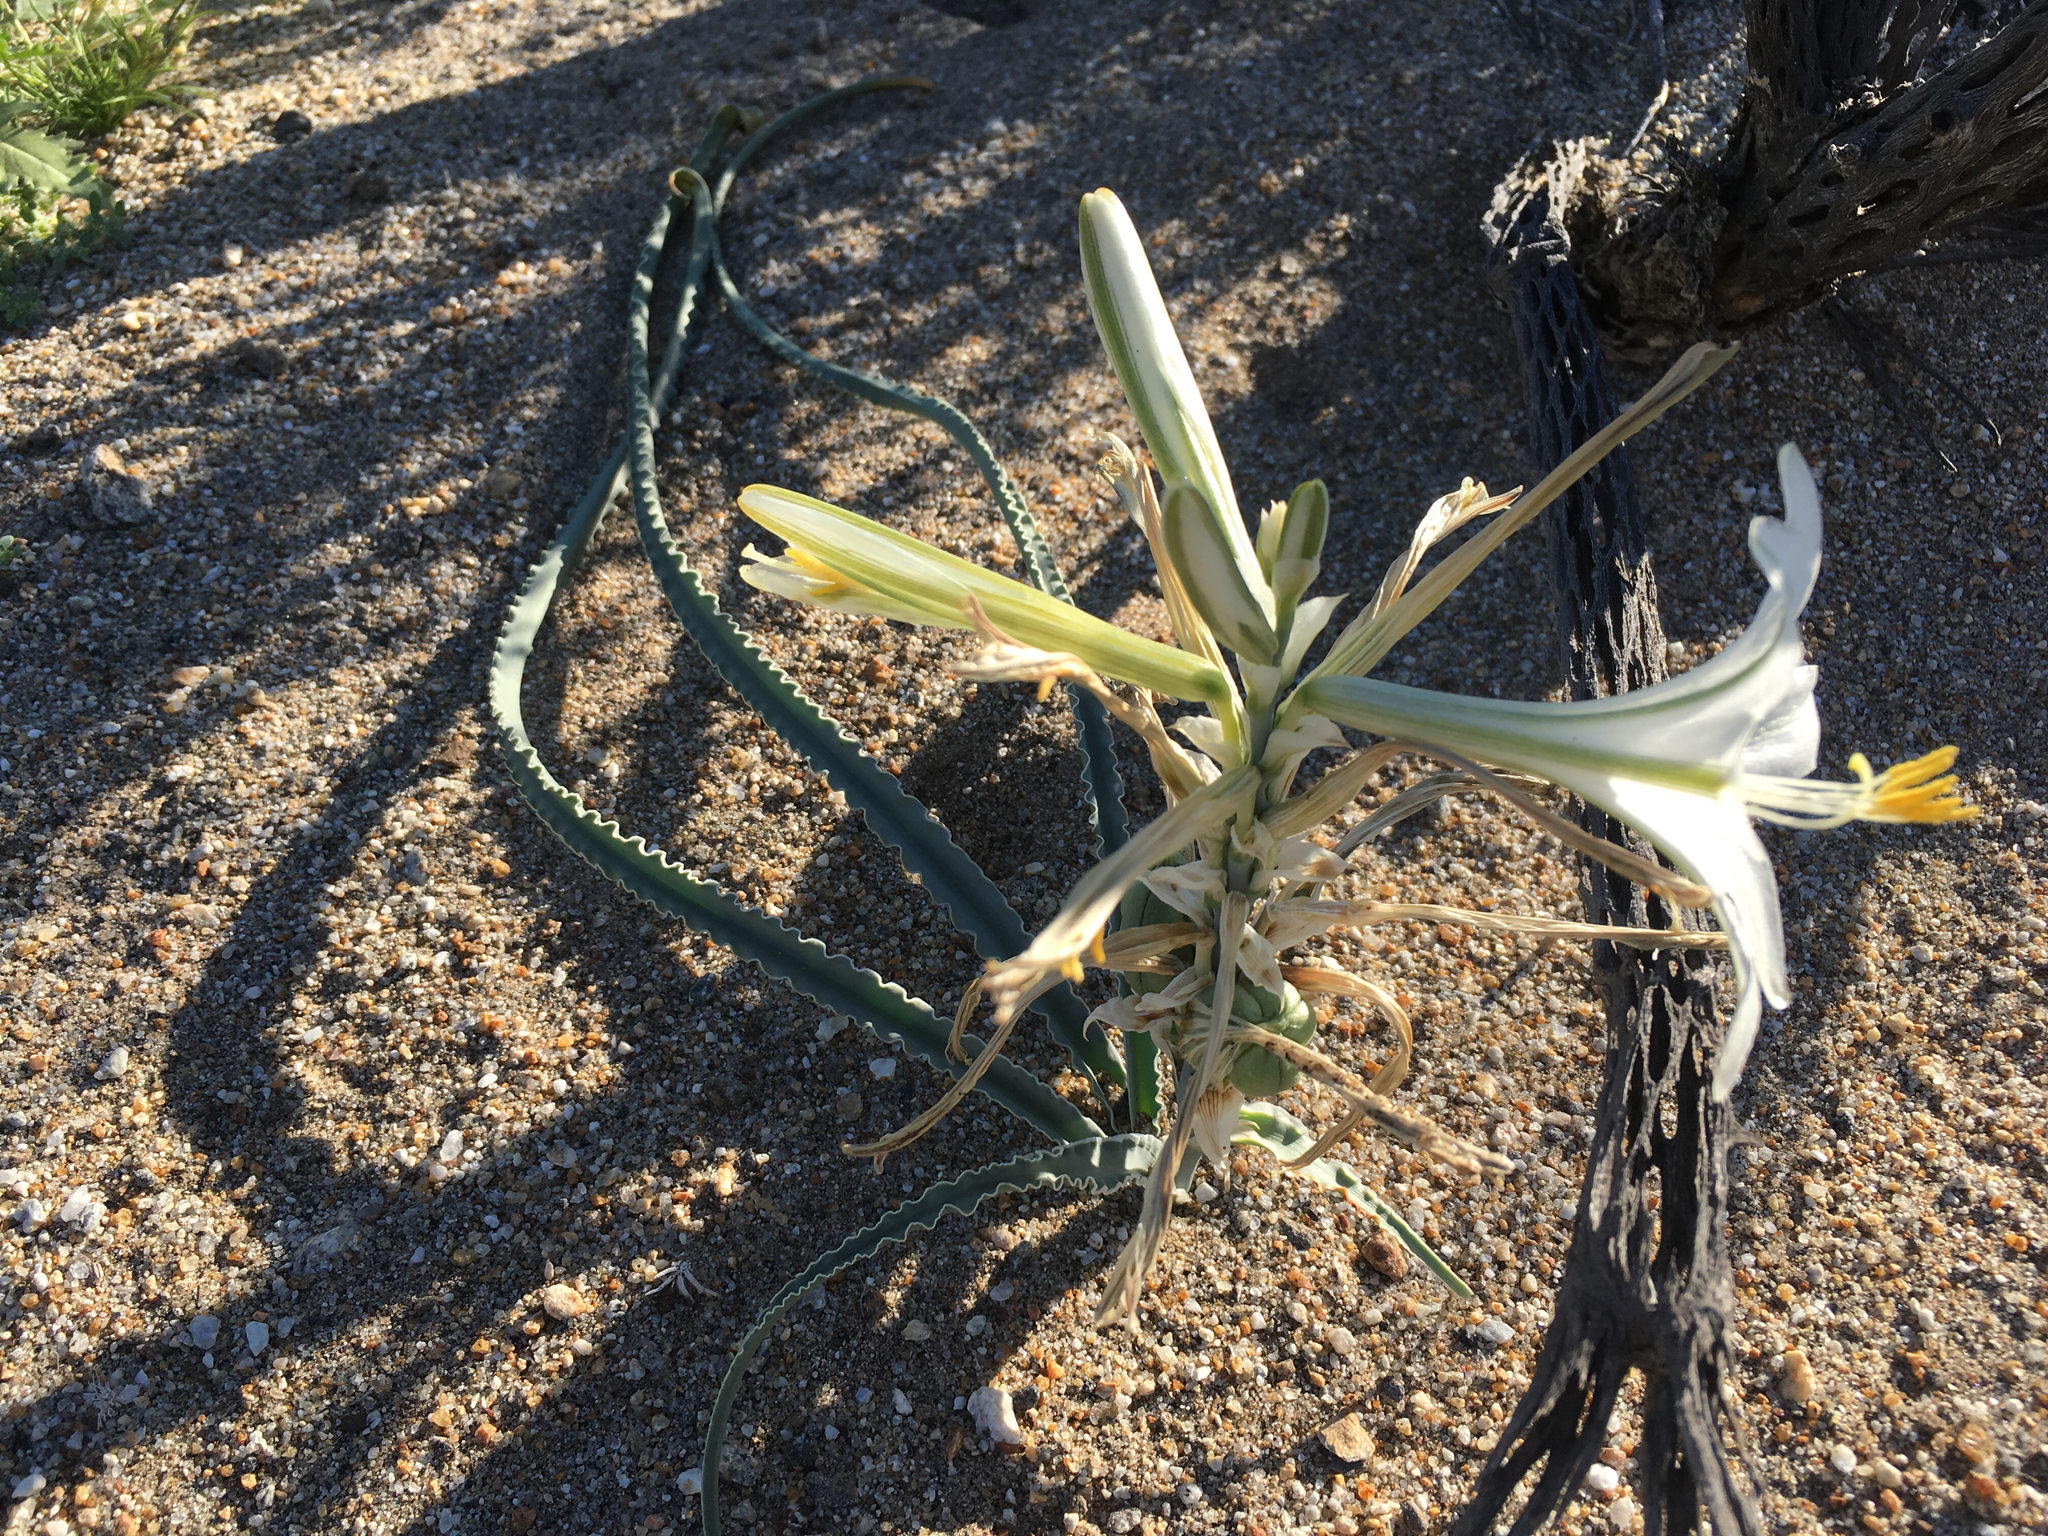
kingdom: Plantae
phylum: Tracheophyta
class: Liliopsida
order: Asparagales
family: Asparagaceae
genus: Hesperocallis
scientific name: Hesperocallis undulata
